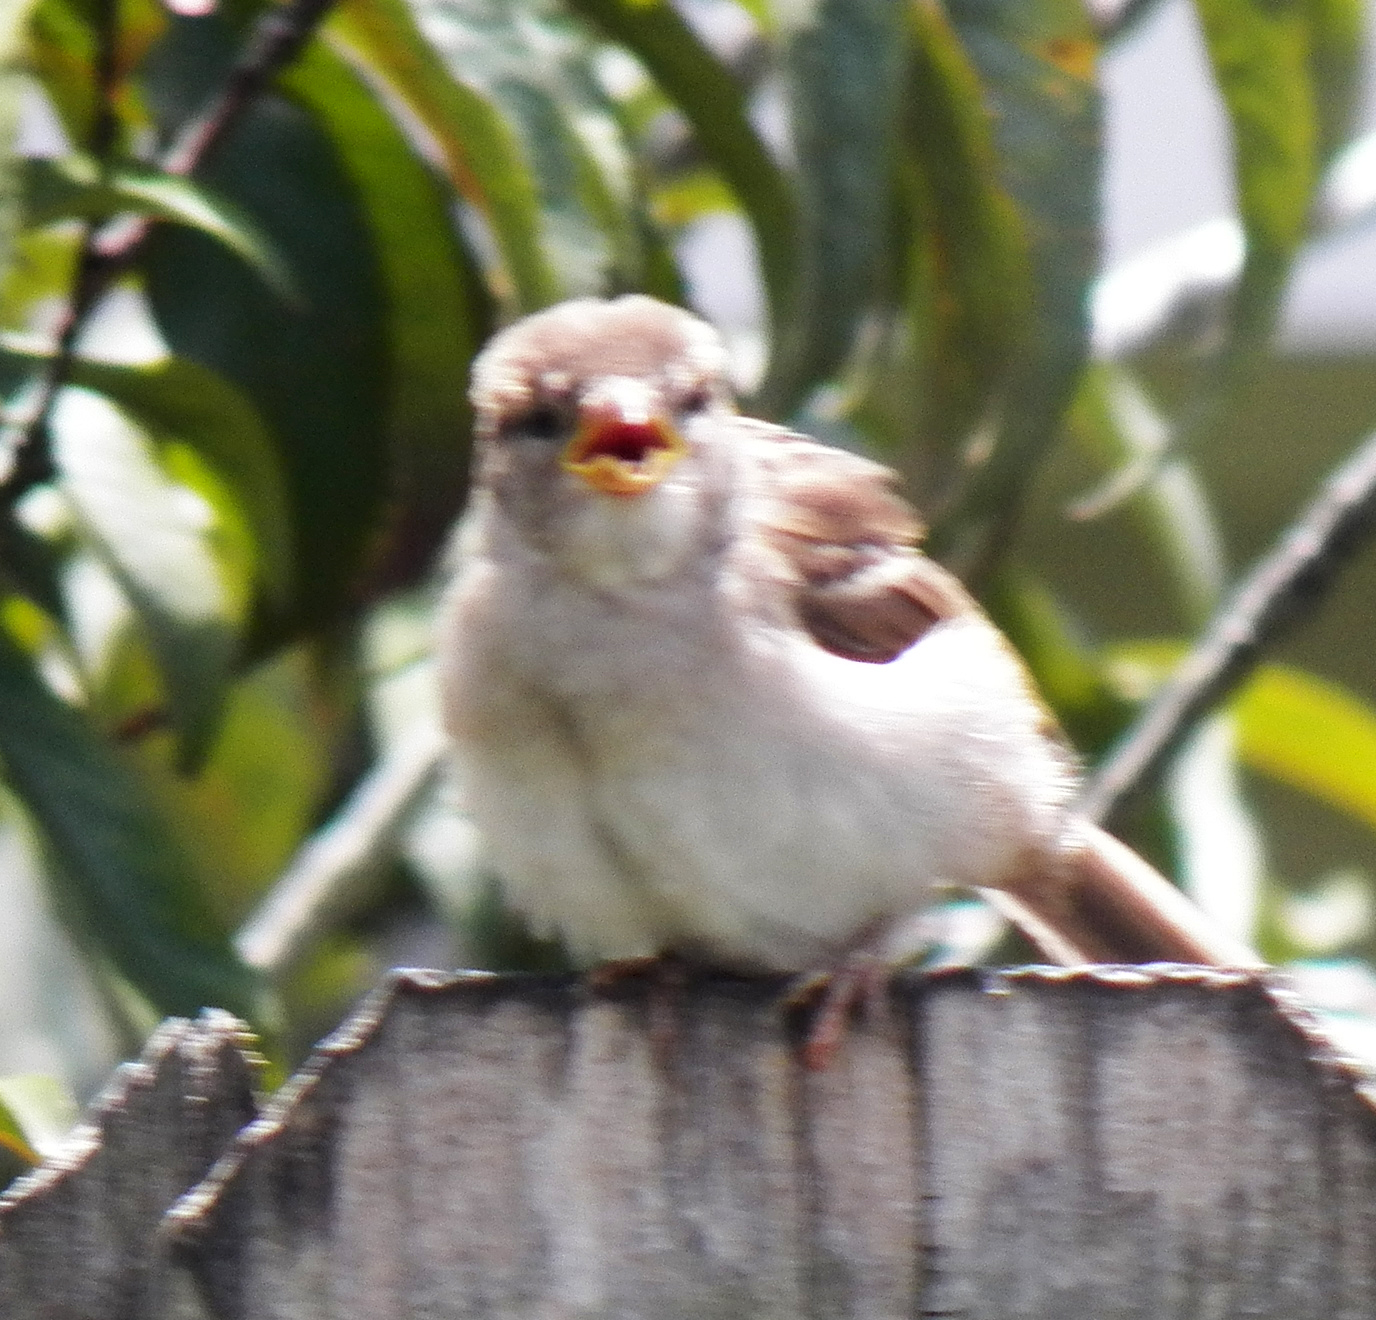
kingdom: Animalia
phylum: Chordata
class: Aves
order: Passeriformes
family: Passeridae
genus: Passer
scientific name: Passer domesticus
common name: House sparrow
